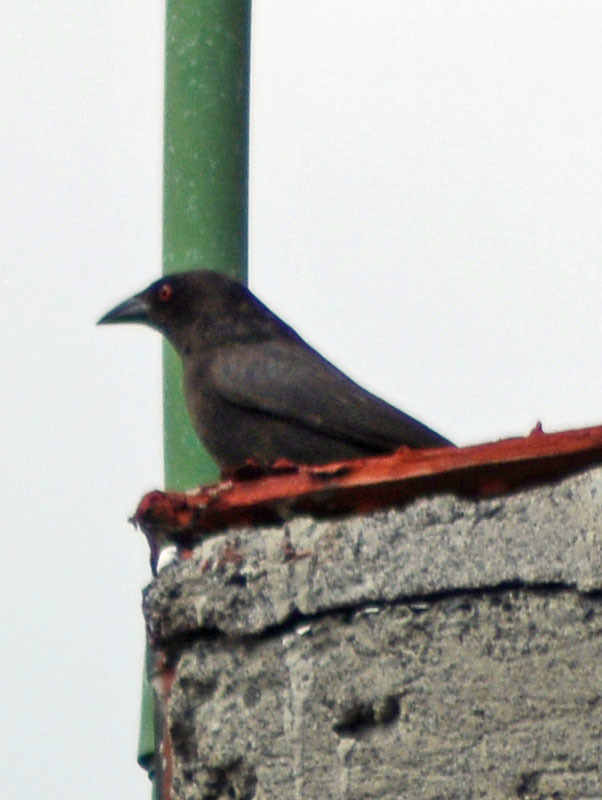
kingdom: Animalia
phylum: Chordata
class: Aves
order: Passeriformes
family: Icteridae
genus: Molothrus
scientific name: Molothrus aeneus
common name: Bronzed cowbird
